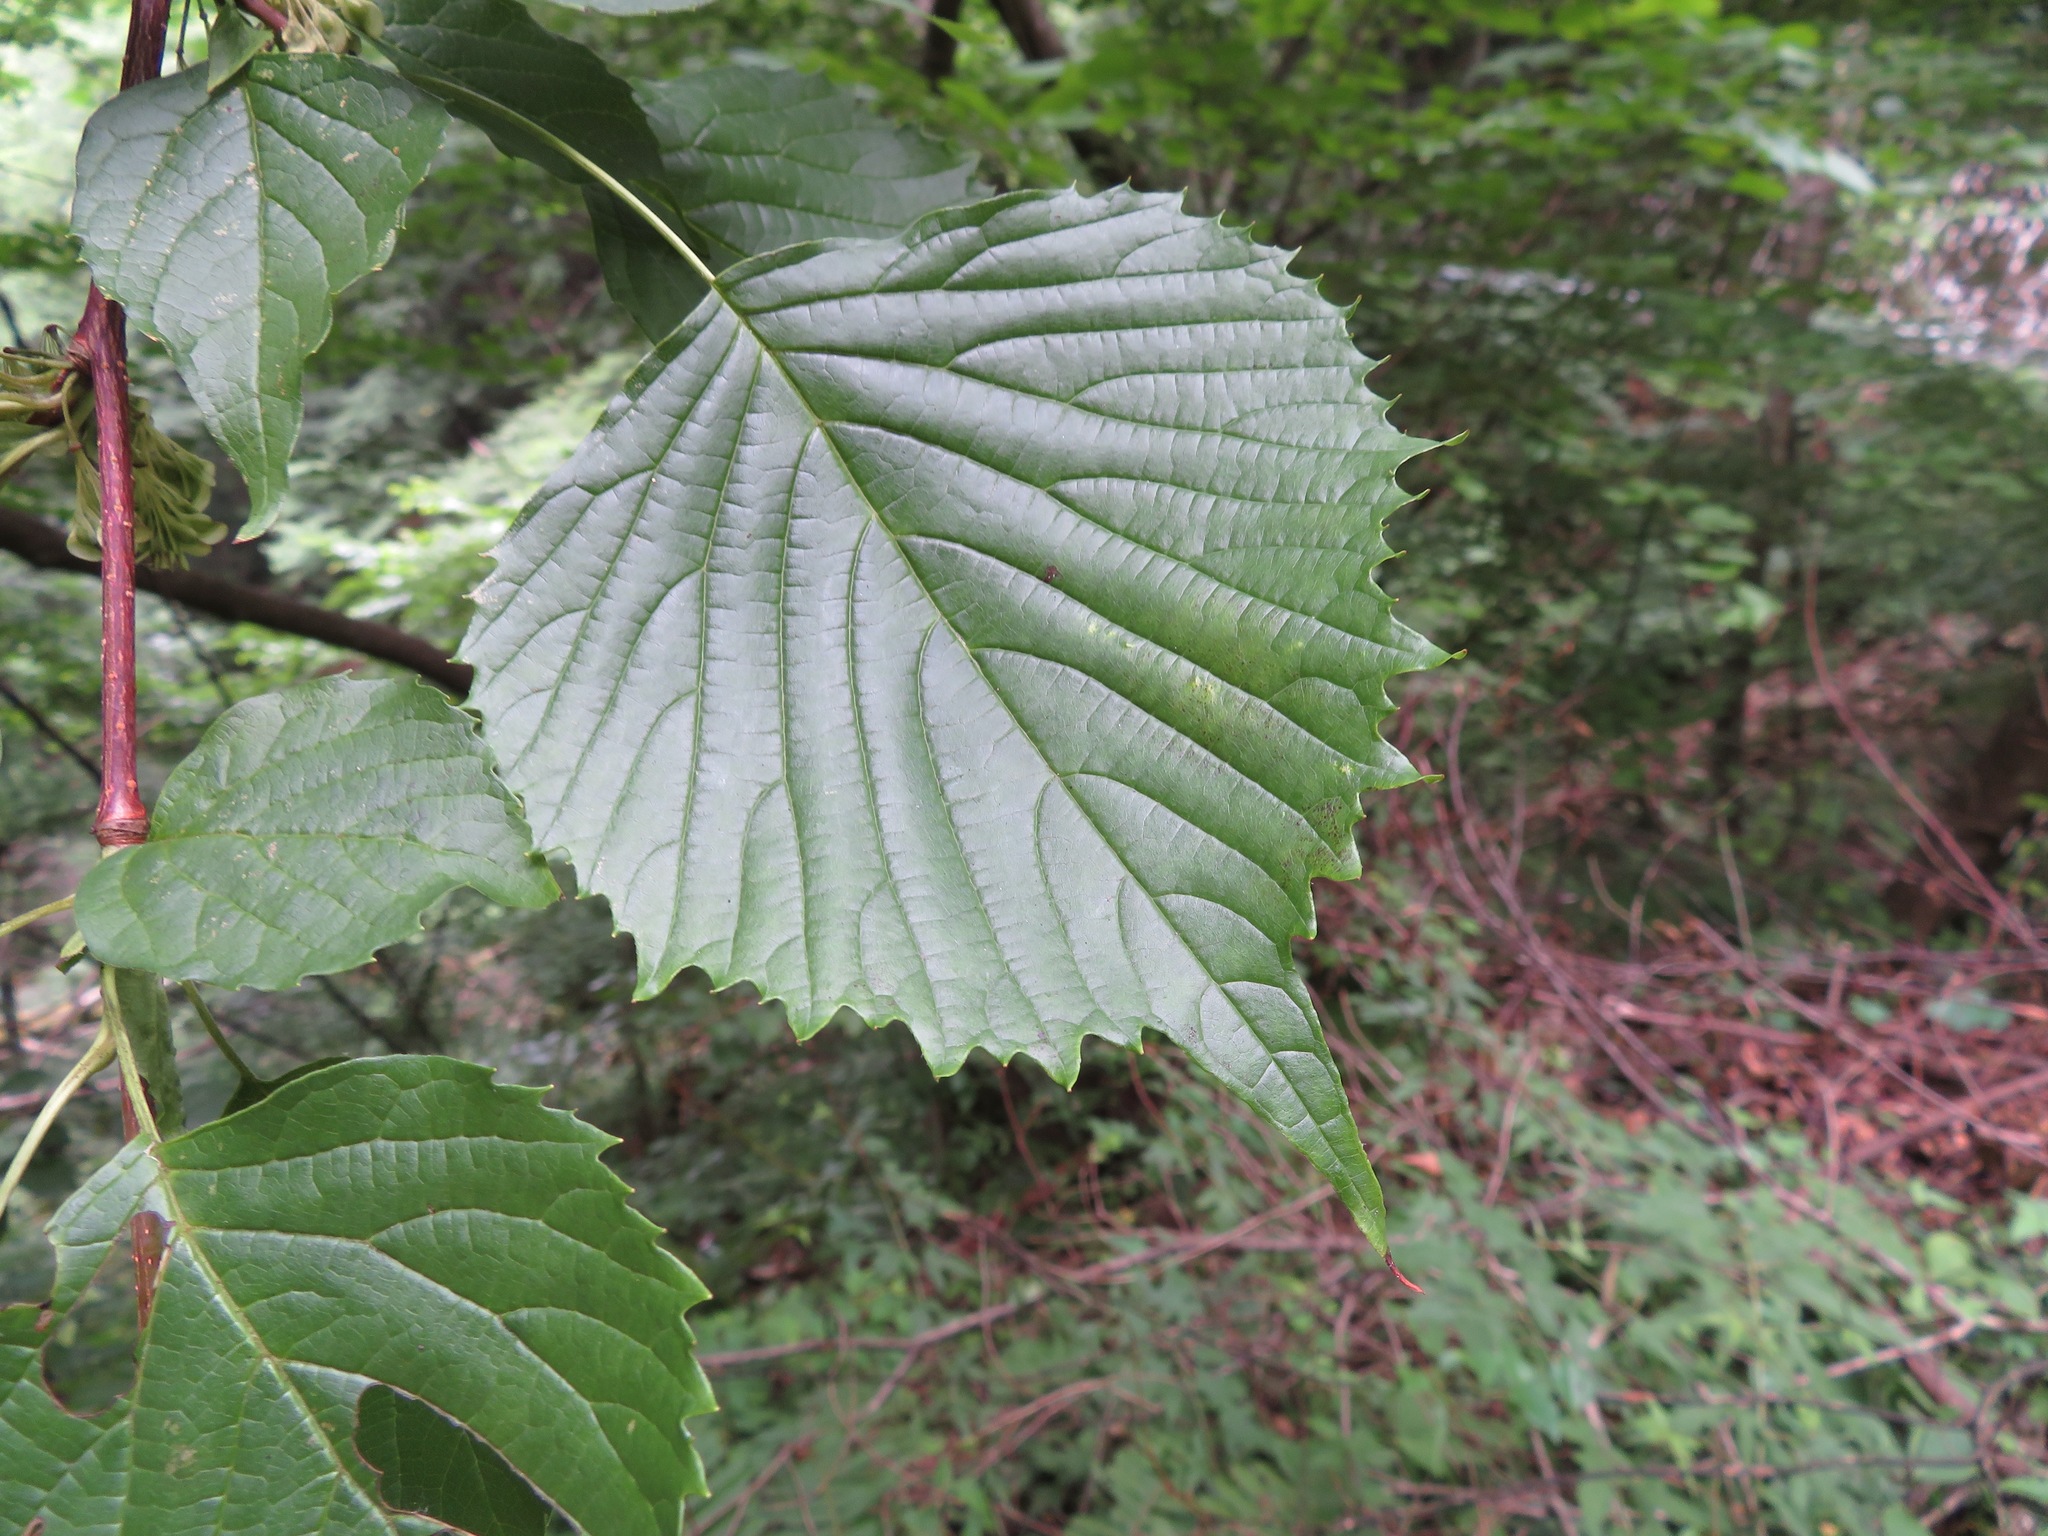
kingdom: Plantae
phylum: Tracheophyta
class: Magnoliopsida
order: Ranunculales
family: Eupteleaceae
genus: Euptelea
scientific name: Euptelea polyandra
